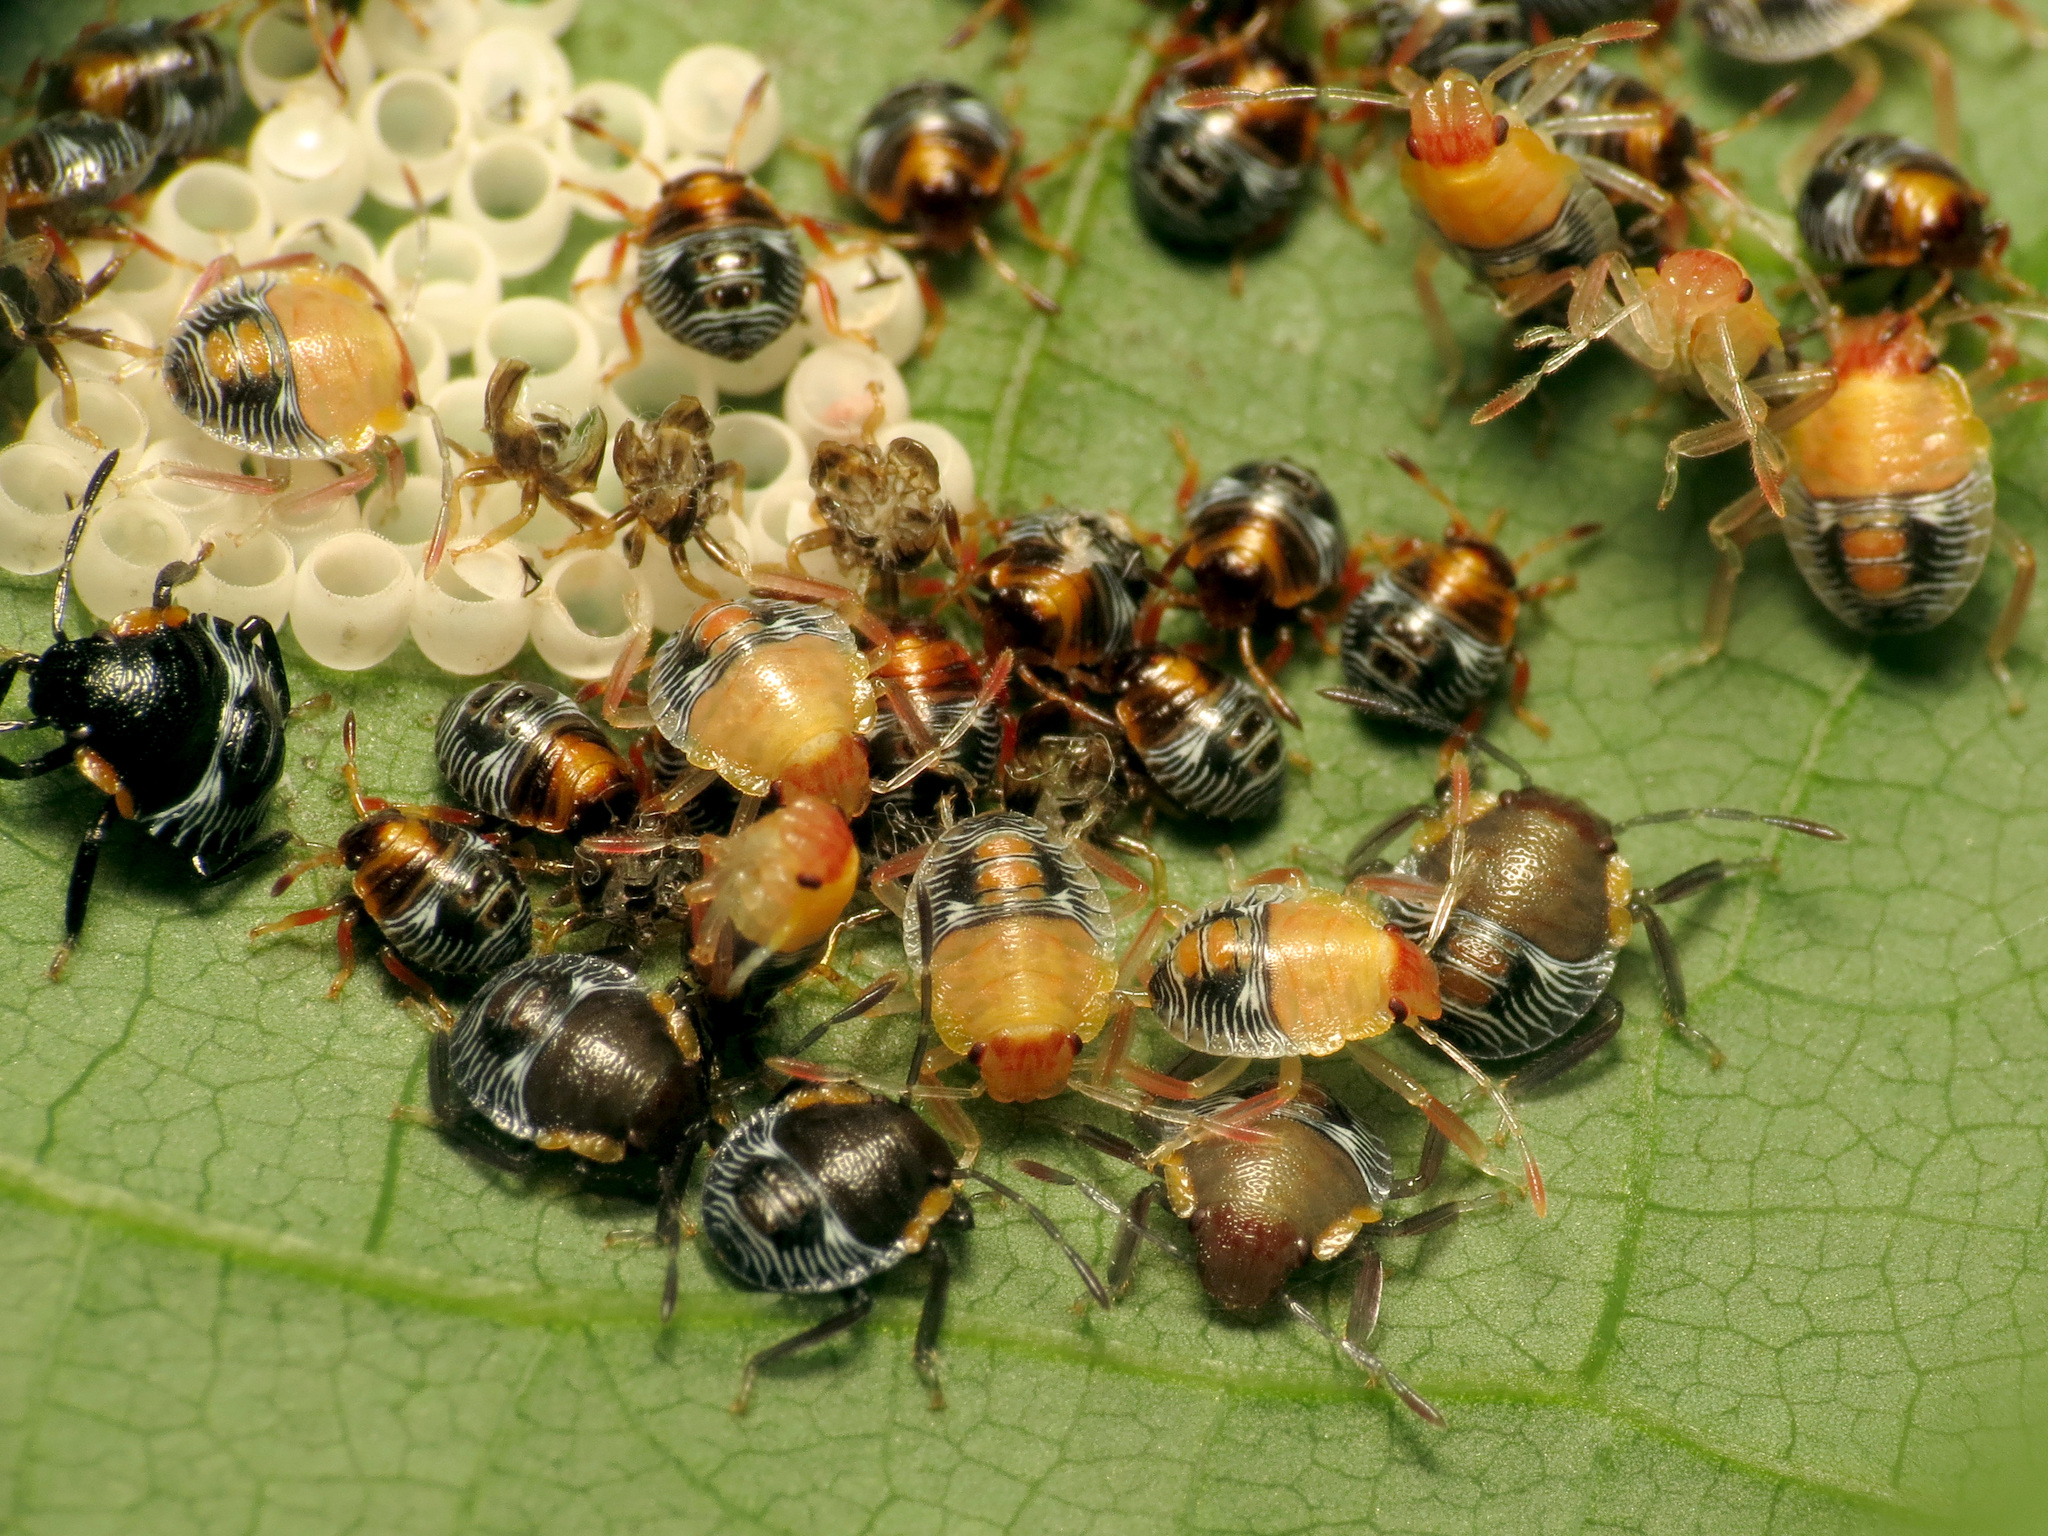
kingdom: Animalia
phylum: Arthropoda
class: Insecta
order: Hemiptera
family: Pentatomidae
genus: Chinavia
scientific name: Chinavia hilaris
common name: Green stink bug
